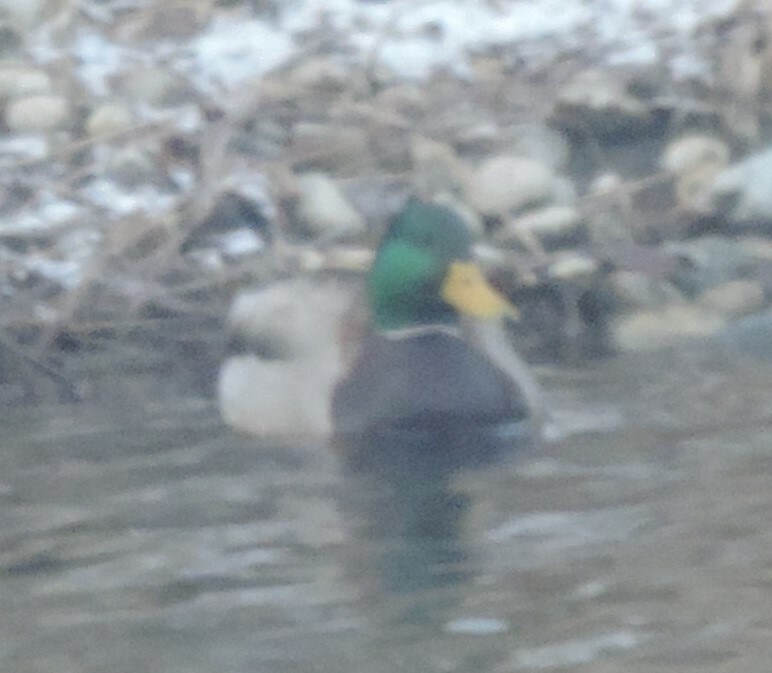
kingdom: Animalia
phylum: Chordata
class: Aves
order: Anseriformes
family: Anatidae
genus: Anas
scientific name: Anas platyrhynchos
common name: Mallard
